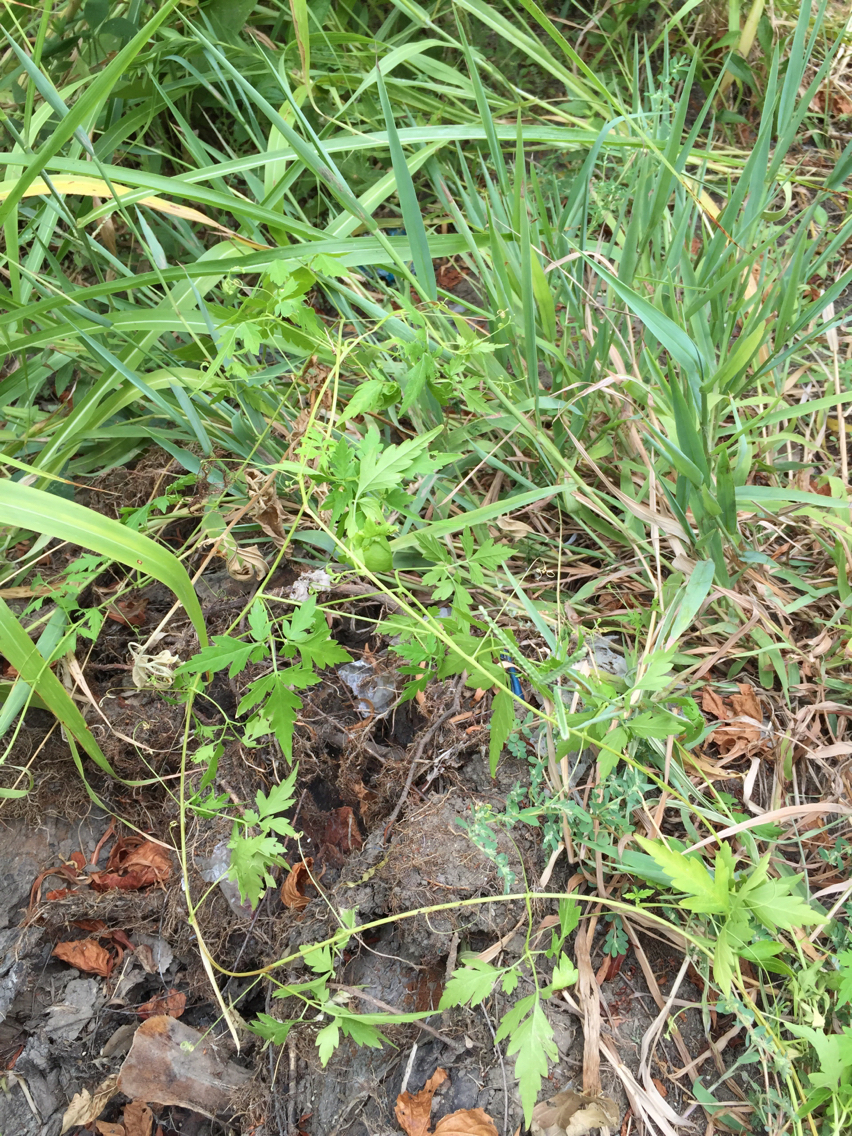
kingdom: Plantae
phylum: Tracheophyta
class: Magnoliopsida
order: Sapindales
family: Sapindaceae
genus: Cardiospermum
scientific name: Cardiospermum halicacabum
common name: Balloon vine
